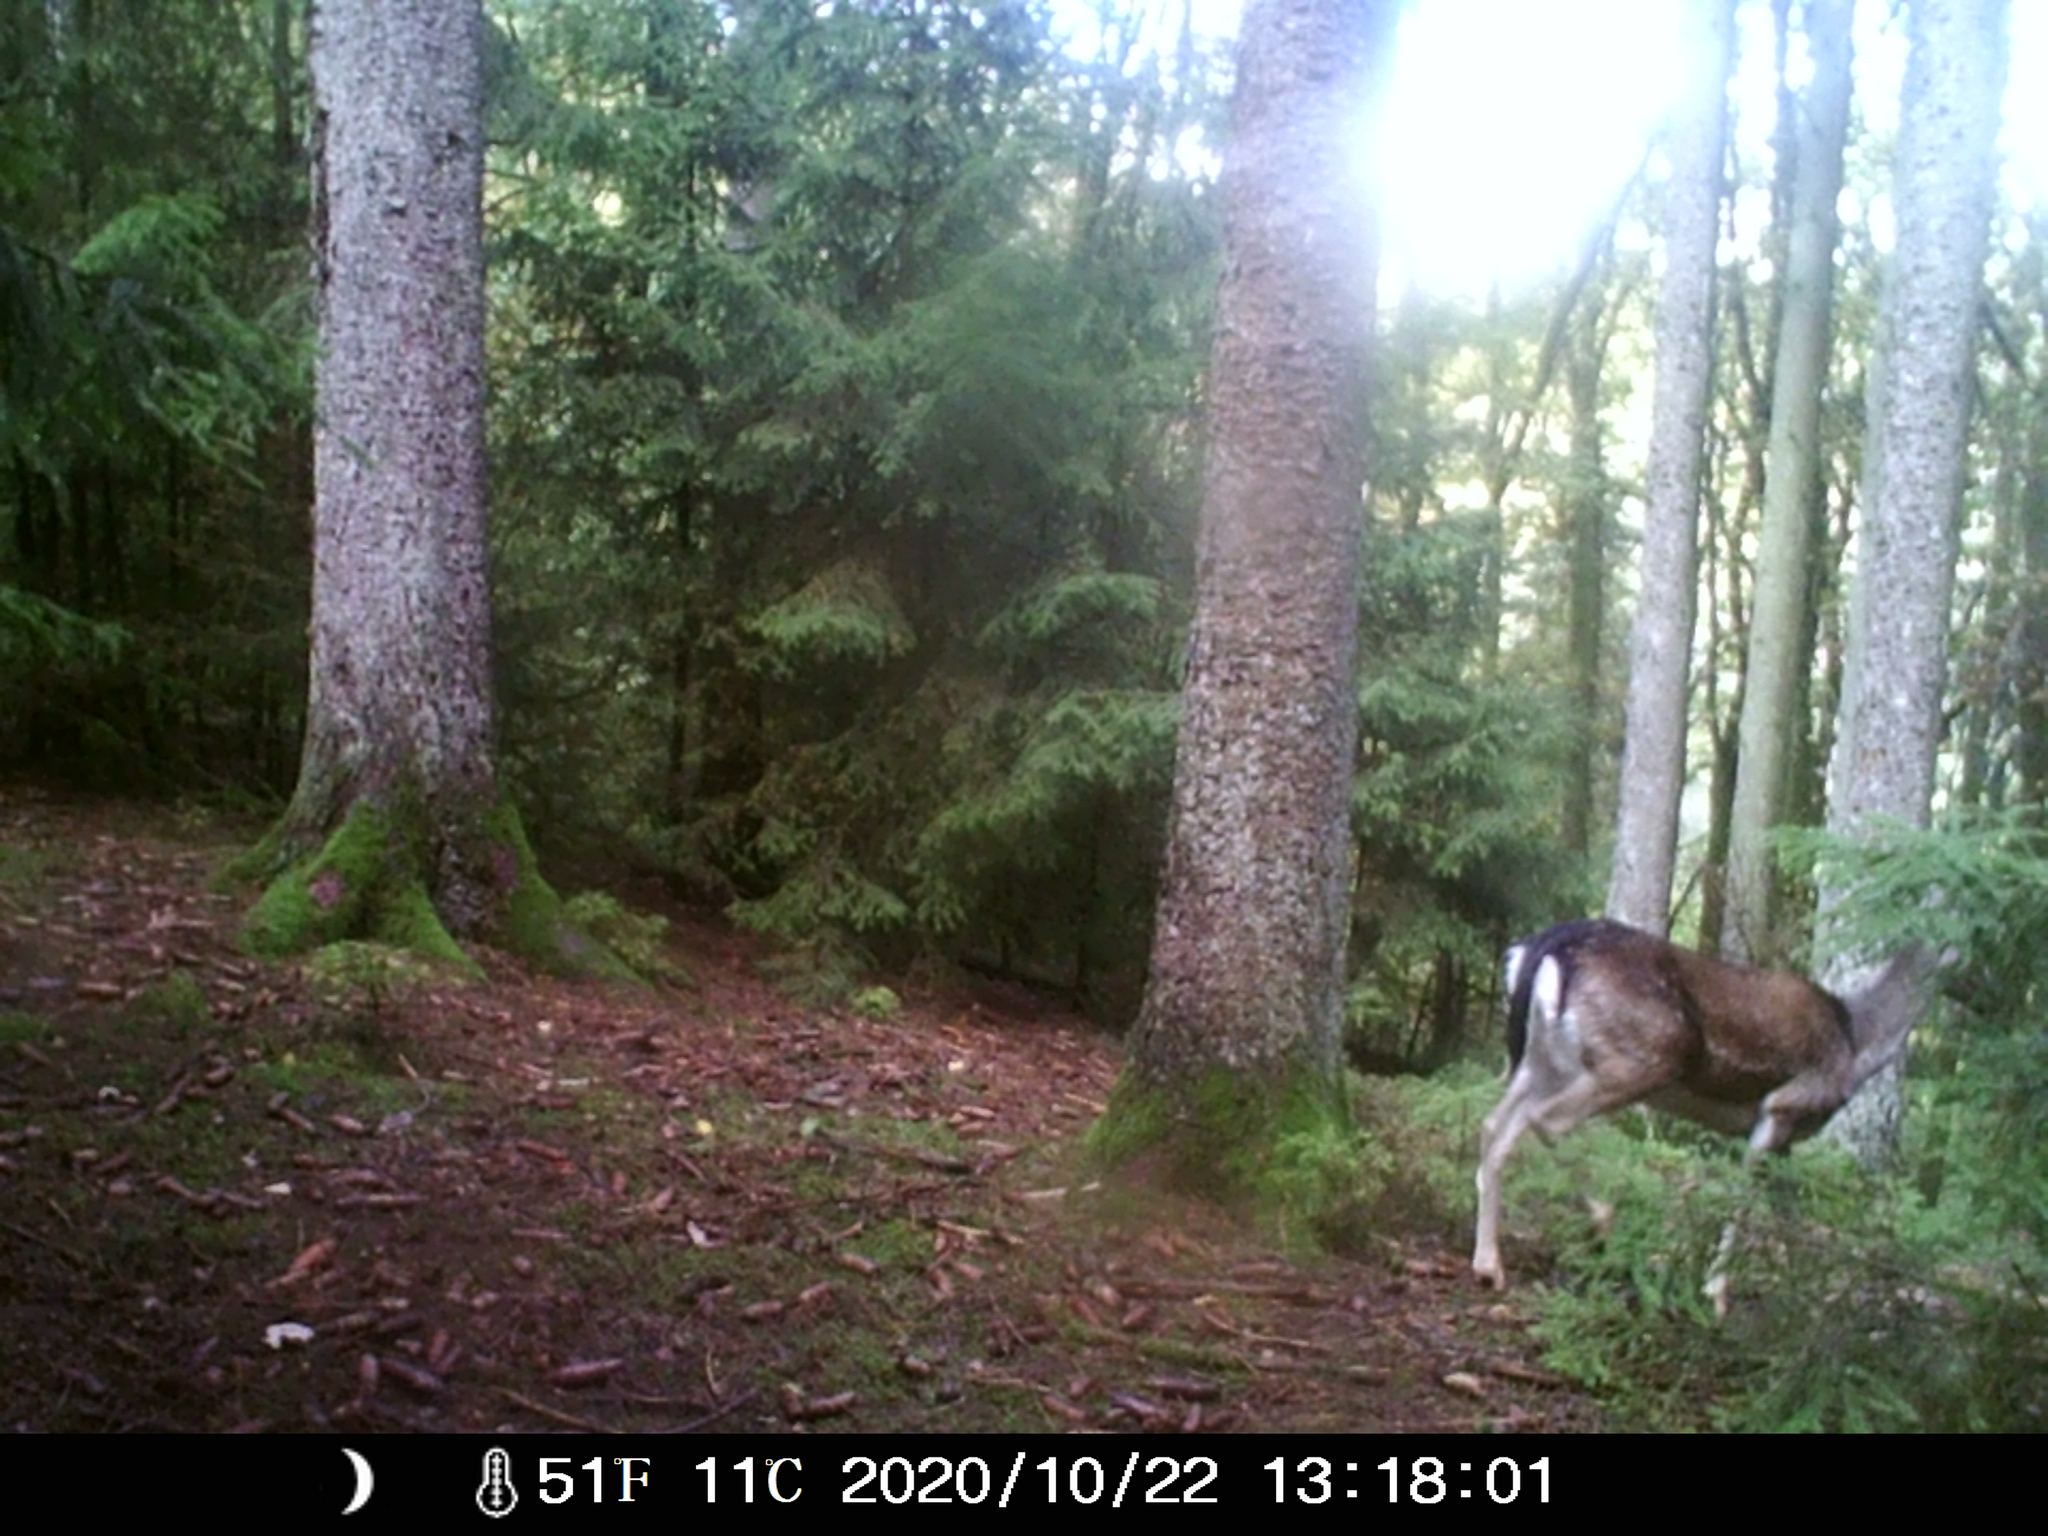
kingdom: Animalia
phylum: Chordata
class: Mammalia
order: Artiodactyla
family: Cervidae
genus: Dama
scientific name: Dama dama
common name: Fallow deer
